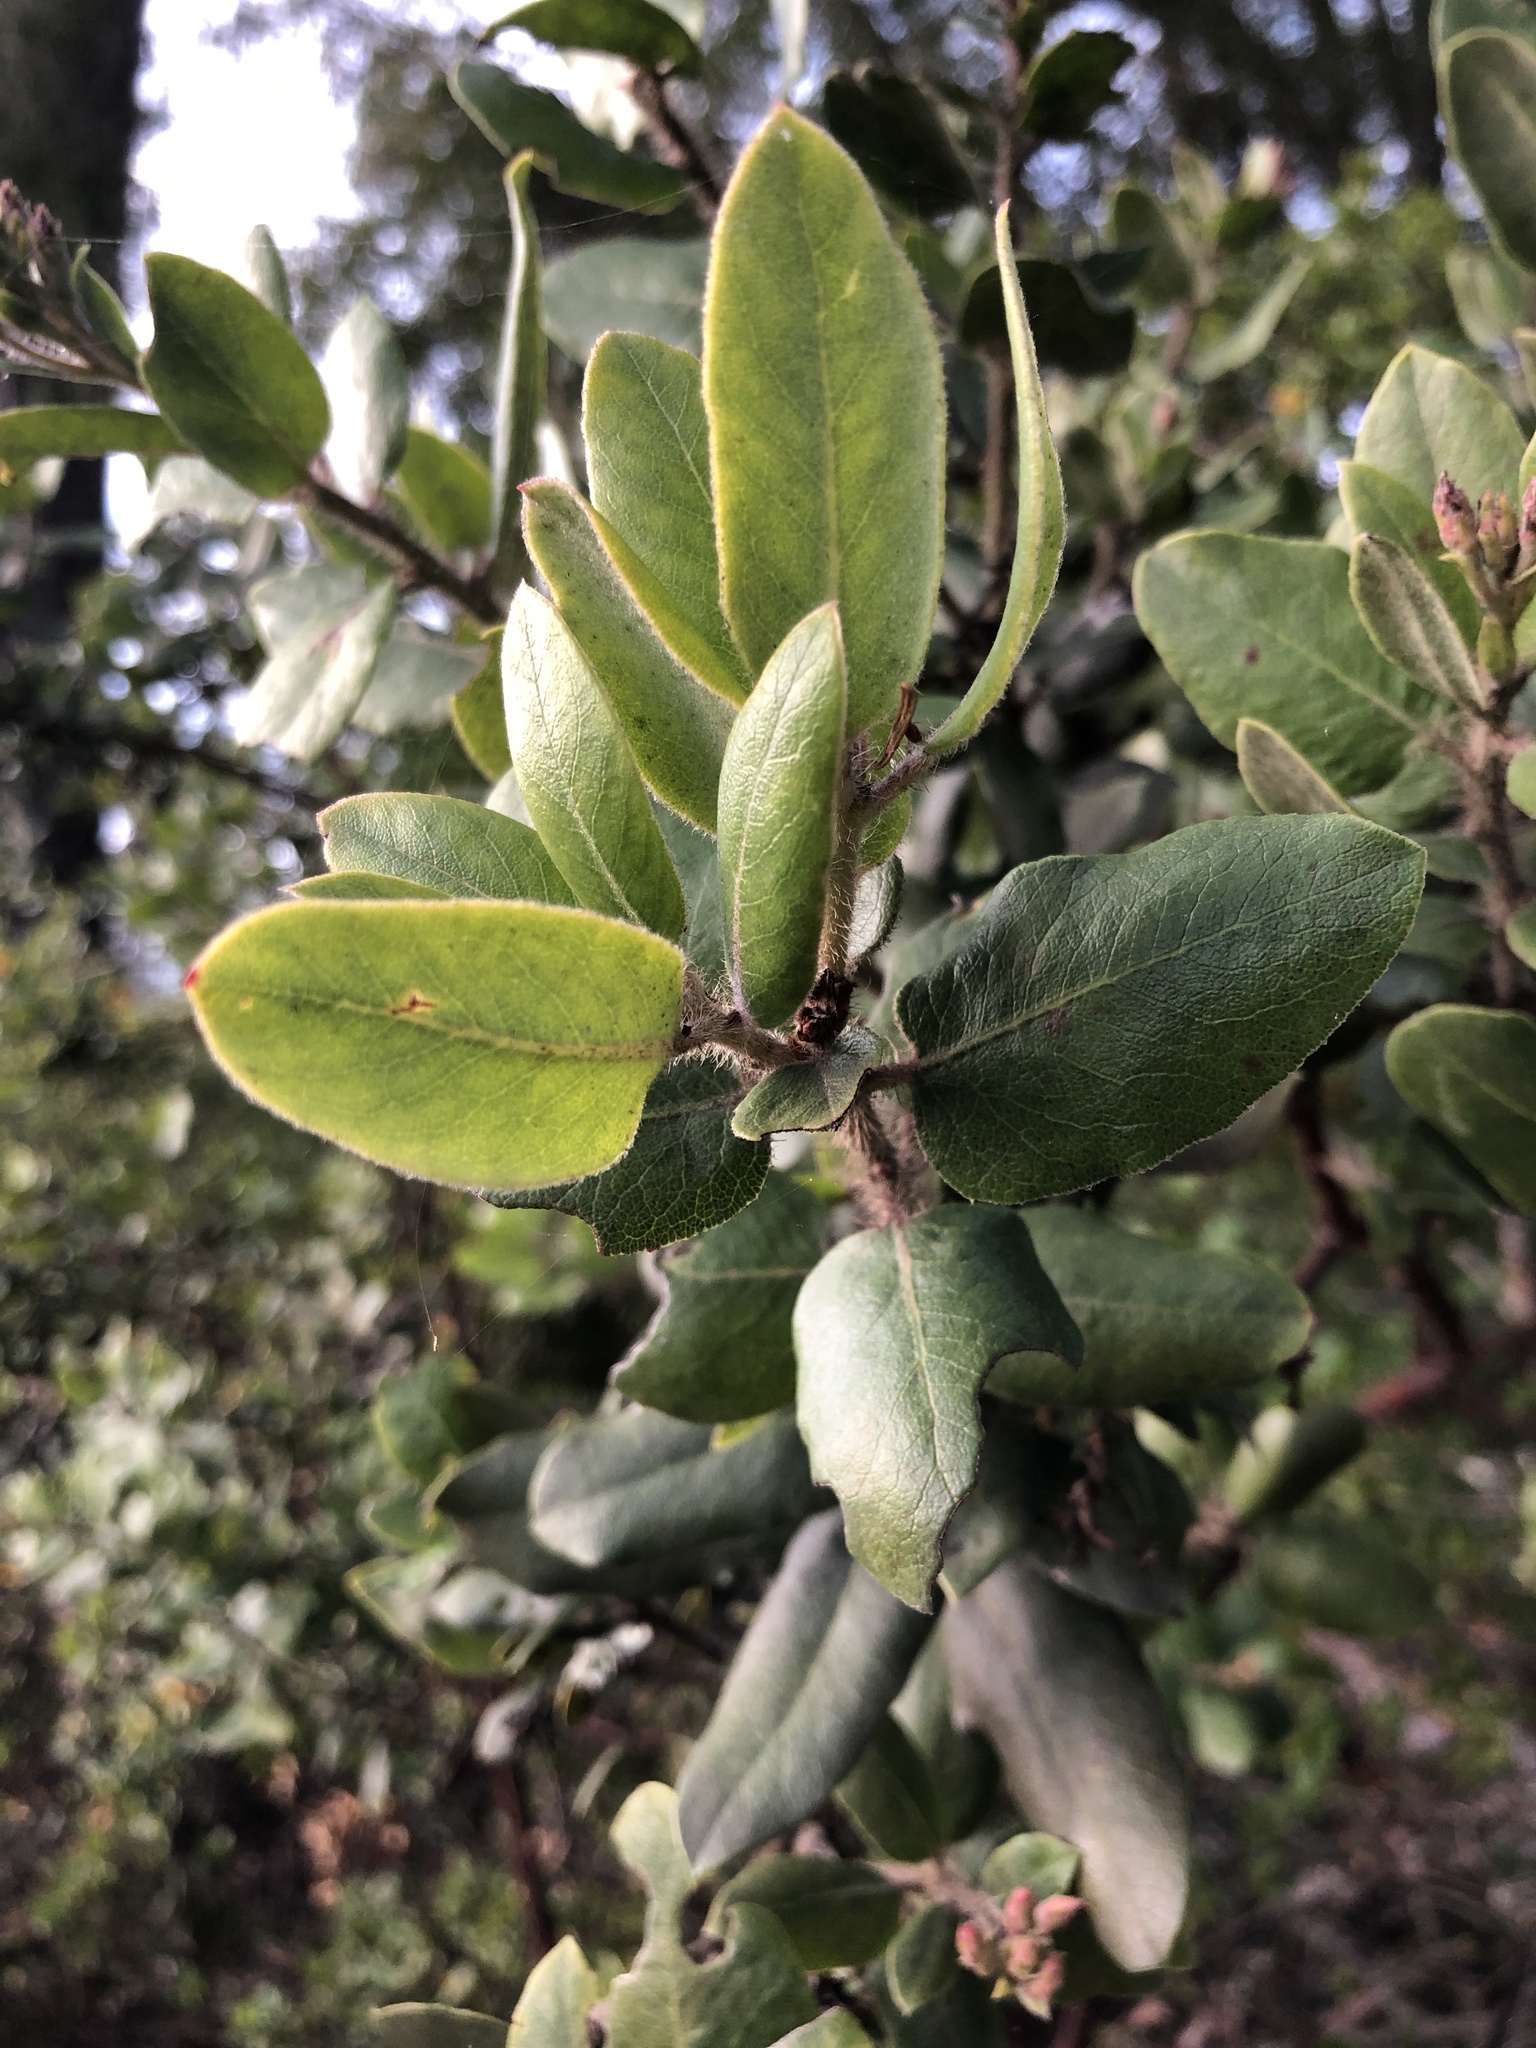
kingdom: Plantae
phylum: Tracheophyta
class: Magnoliopsida
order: Ericales
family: Ericaceae
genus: Arctostaphylos
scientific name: Arctostaphylos crustacea
